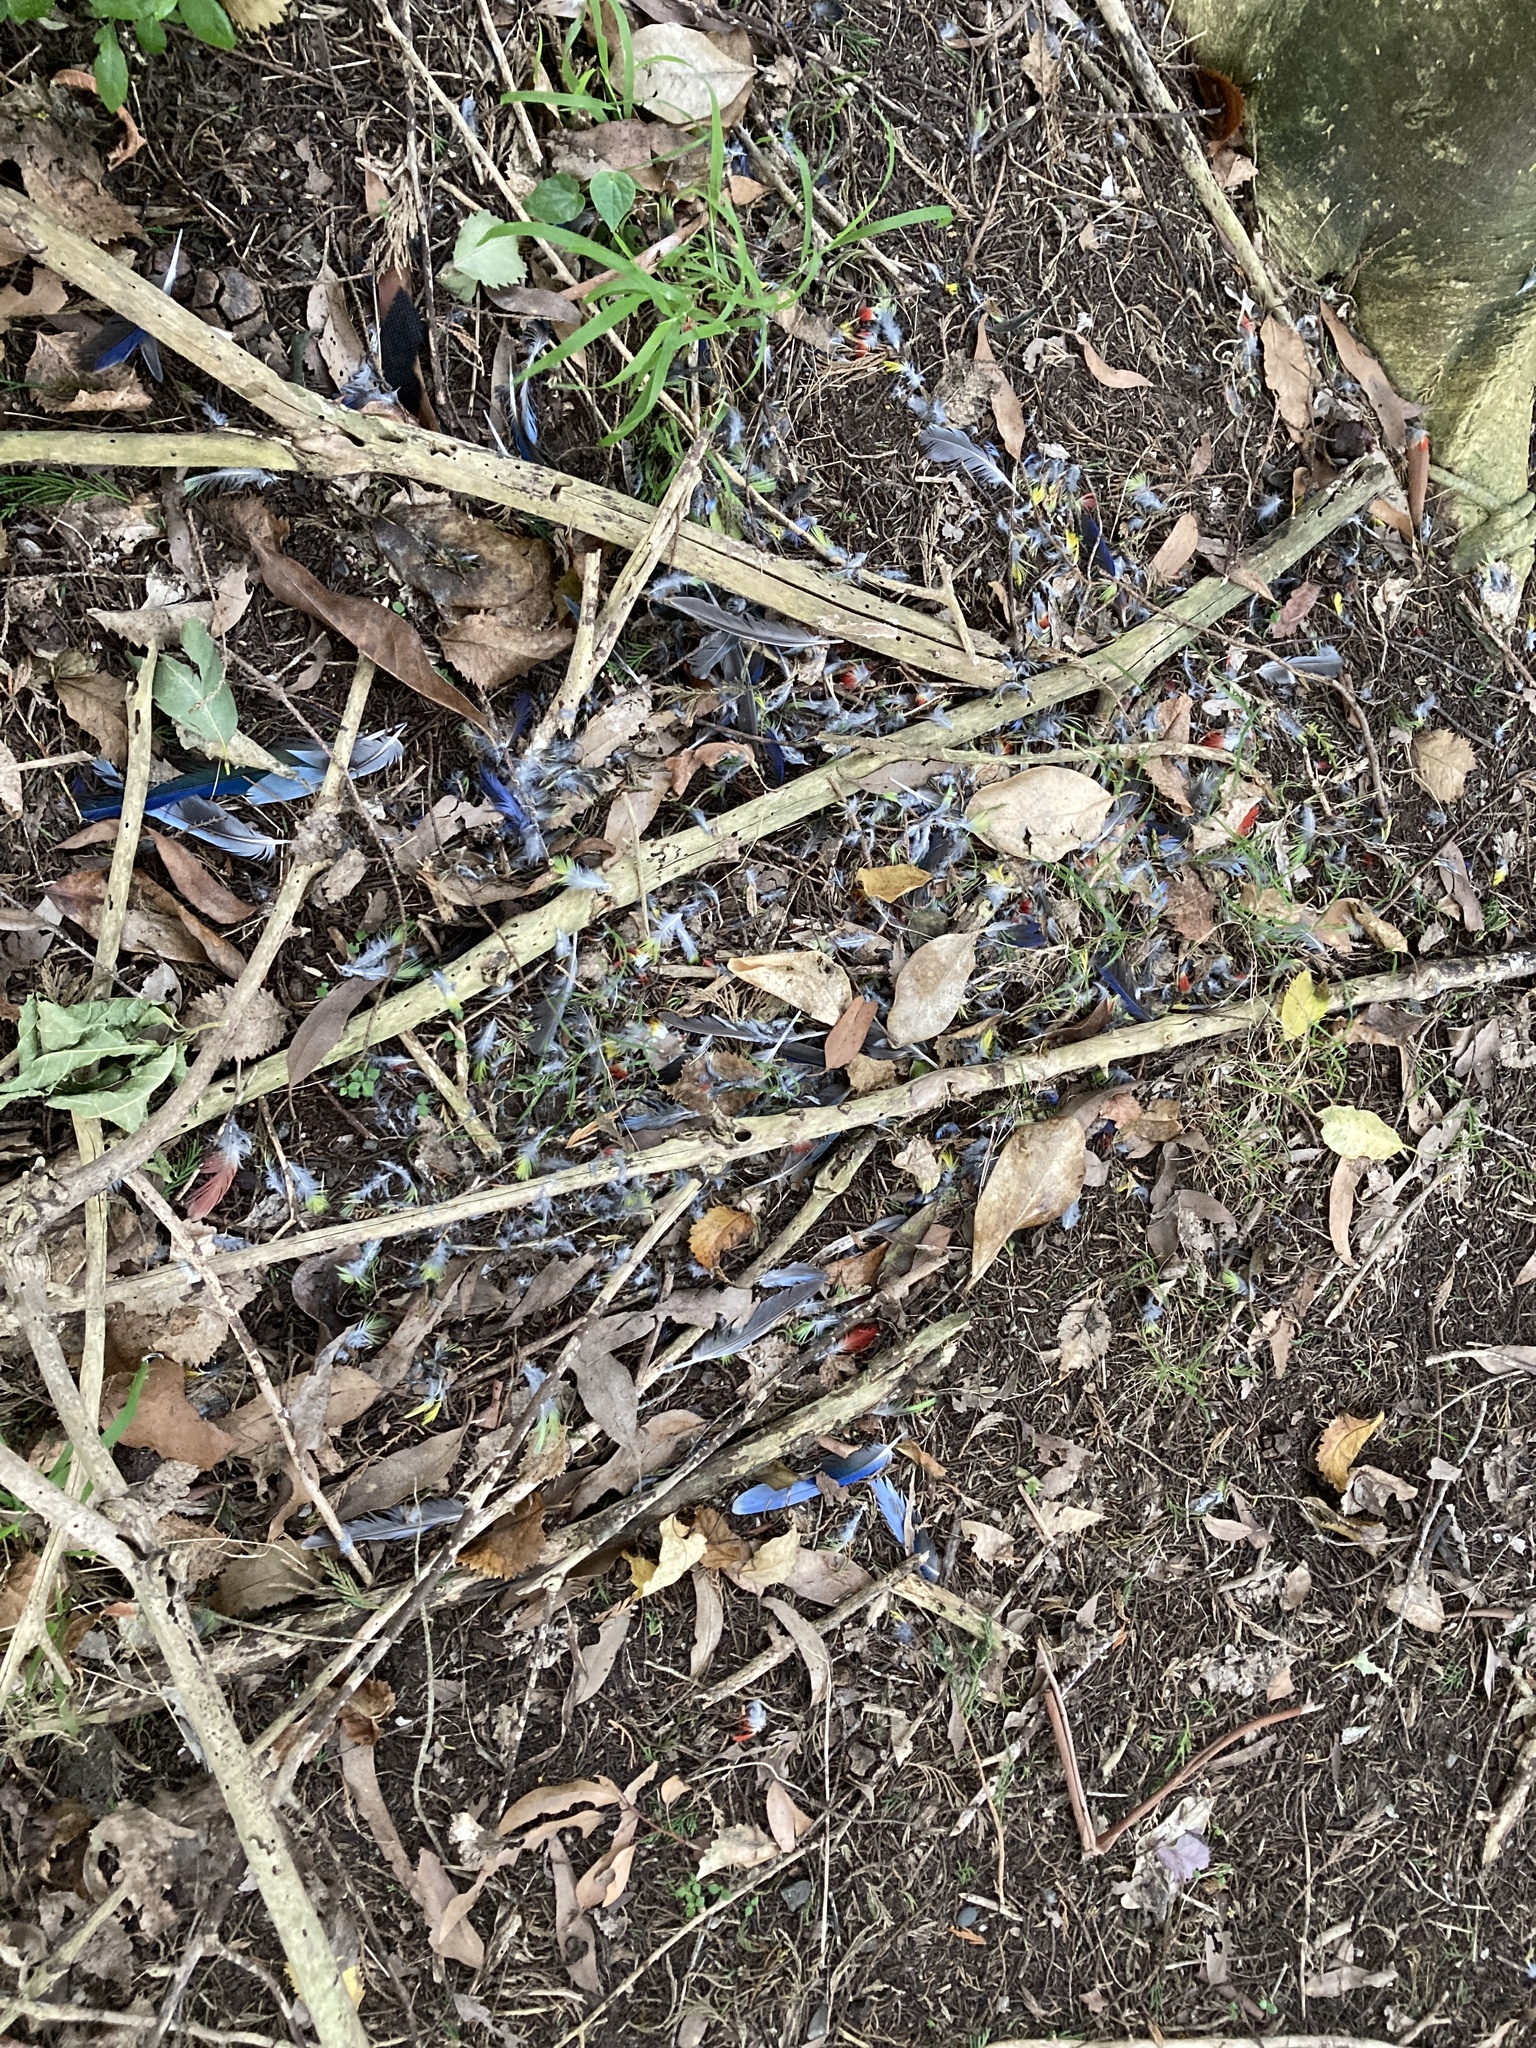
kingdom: Animalia
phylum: Chordata
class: Aves
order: Psittaciformes
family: Psittacidae
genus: Platycercus
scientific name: Platycercus eximius
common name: Eastern rosella
